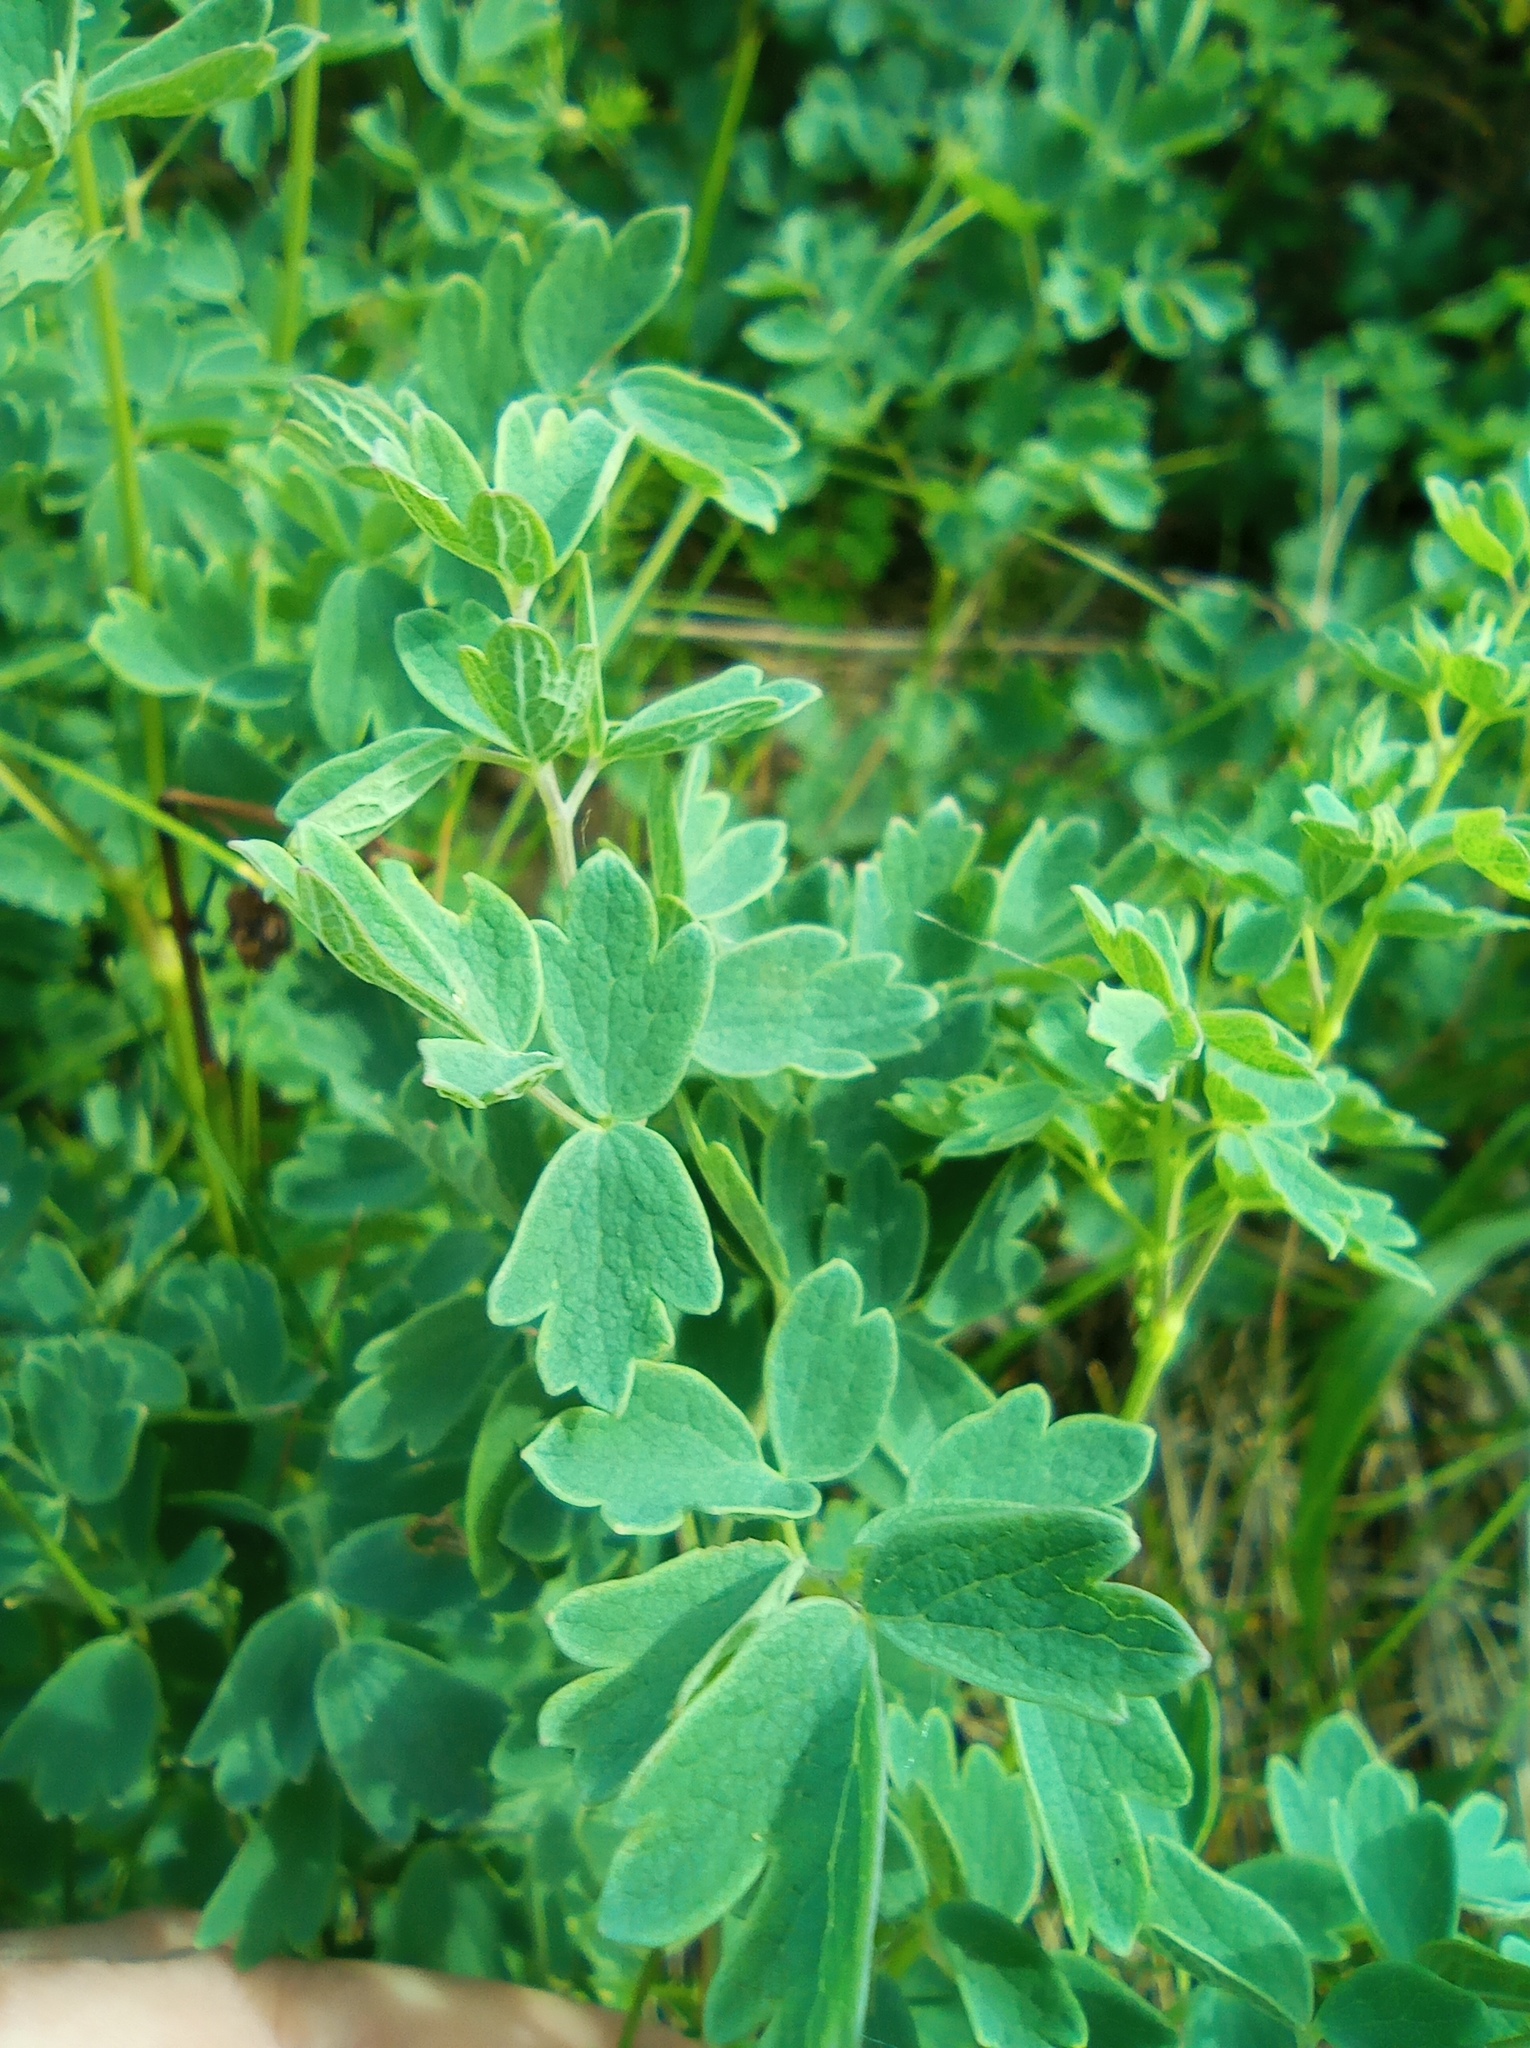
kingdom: Plantae
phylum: Tracheophyta
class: Magnoliopsida
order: Ranunculales
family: Ranunculaceae
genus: Thalictrum
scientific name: Thalictrum minus
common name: Lesser meadow-rue
